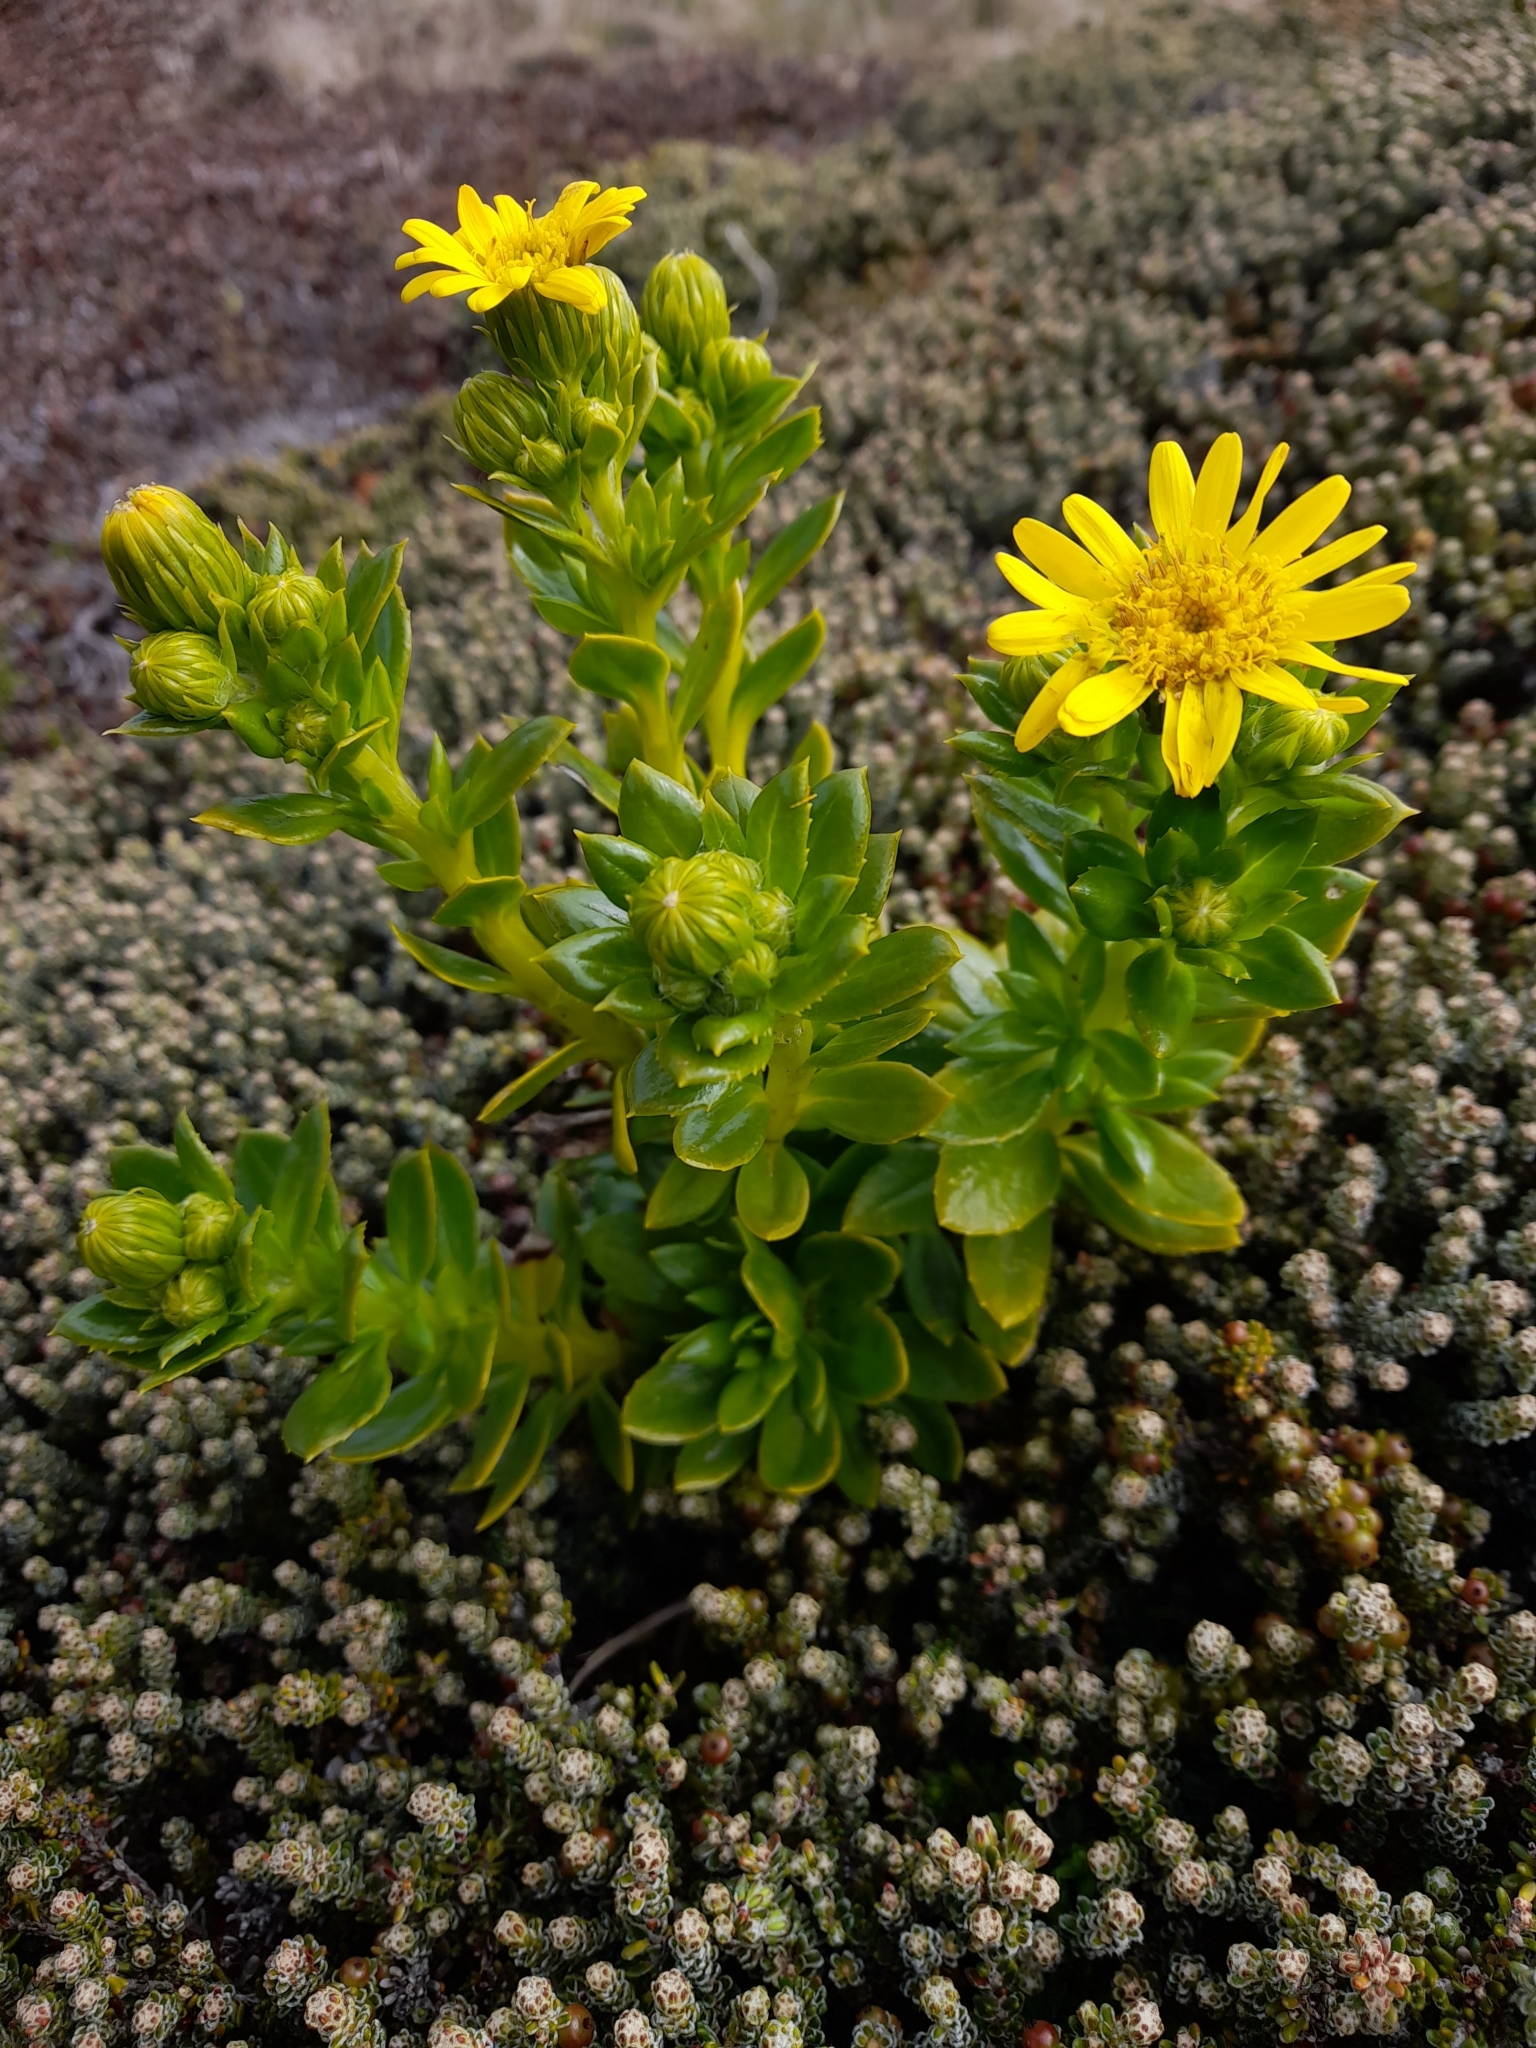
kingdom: Plantae
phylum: Tracheophyta
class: Magnoliopsida
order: Asterales
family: Asteraceae
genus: Senecio
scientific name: Senecio vaginatus
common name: Smooth falkland daisy
